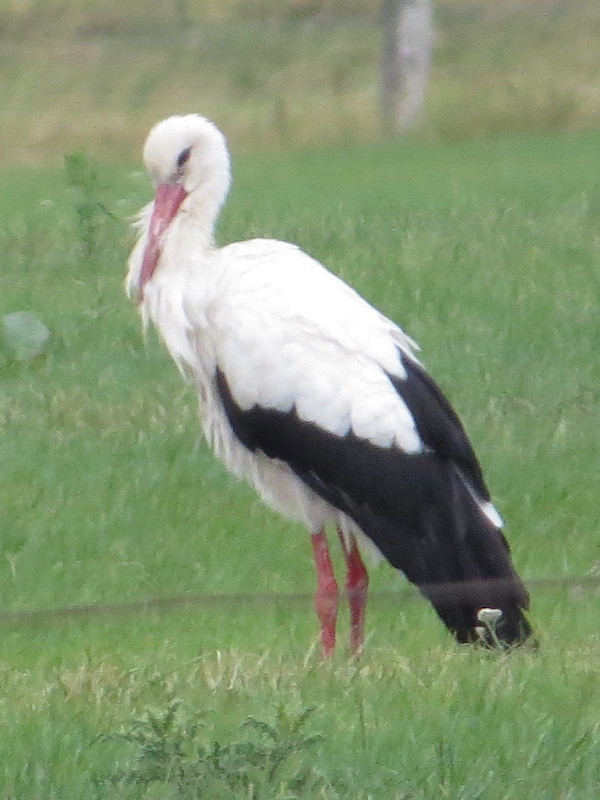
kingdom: Animalia
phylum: Chordata
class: Aves
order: Ciconiiformes
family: Ciconiidae
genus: Ciconia
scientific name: Ciconia ciconia
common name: White stork
